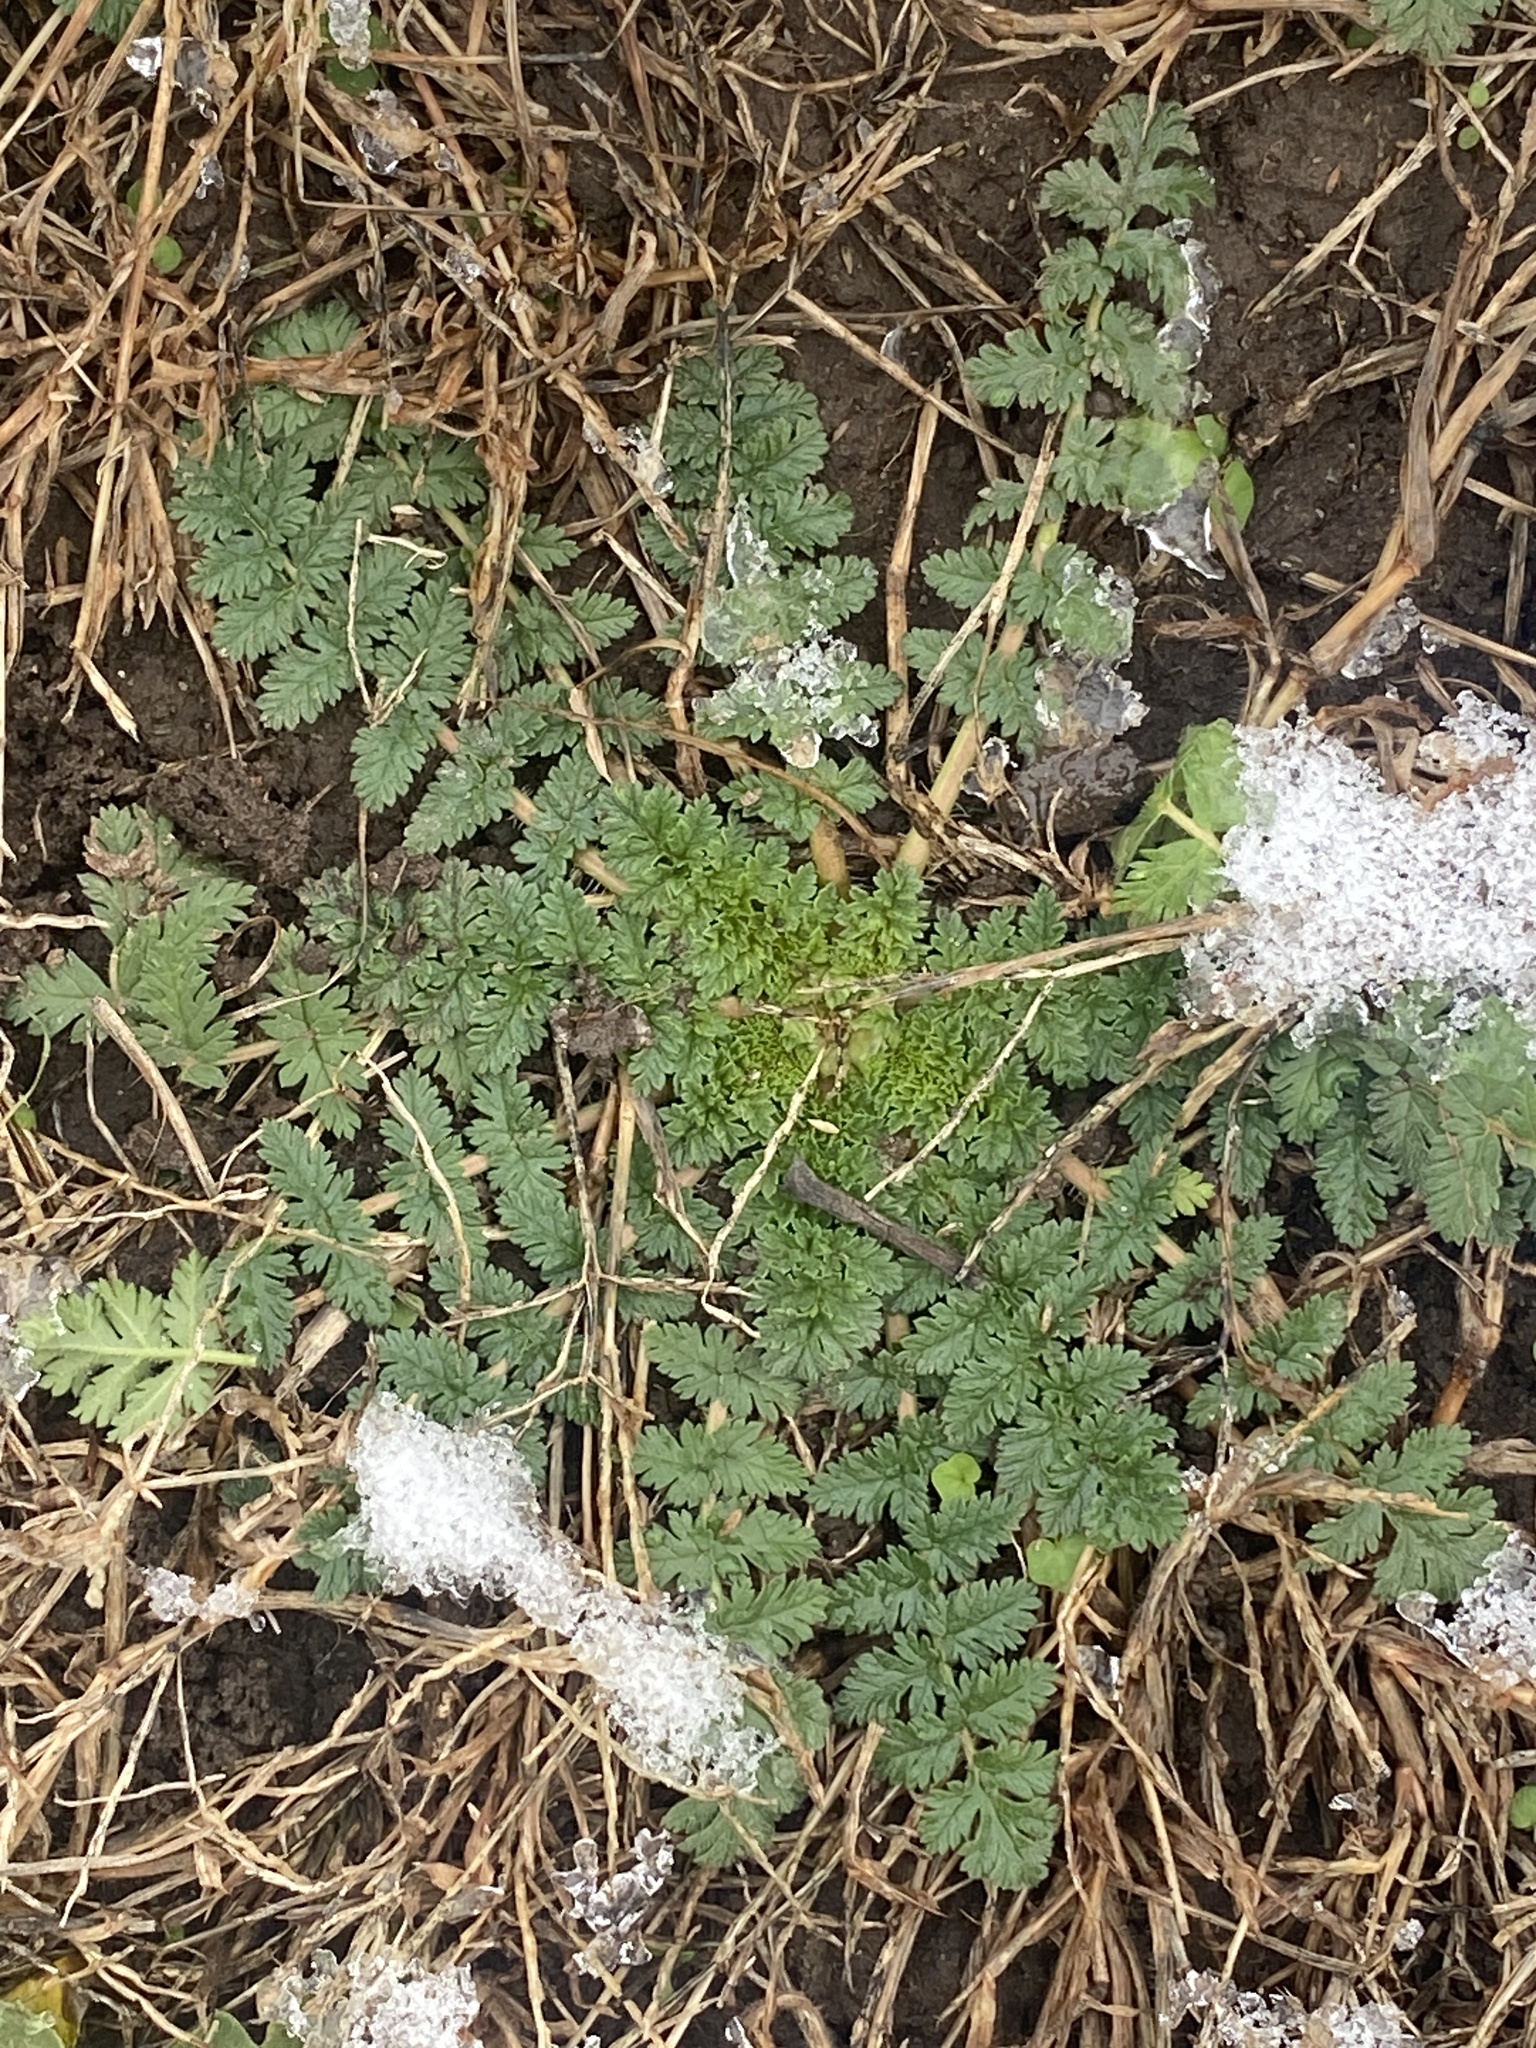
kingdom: Plantae
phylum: Tracheophyta
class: Magnoliopsida
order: Geraniales
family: Geraniaceae
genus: Erodium
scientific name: Erodium cicutarium
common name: Common stork's-bill
